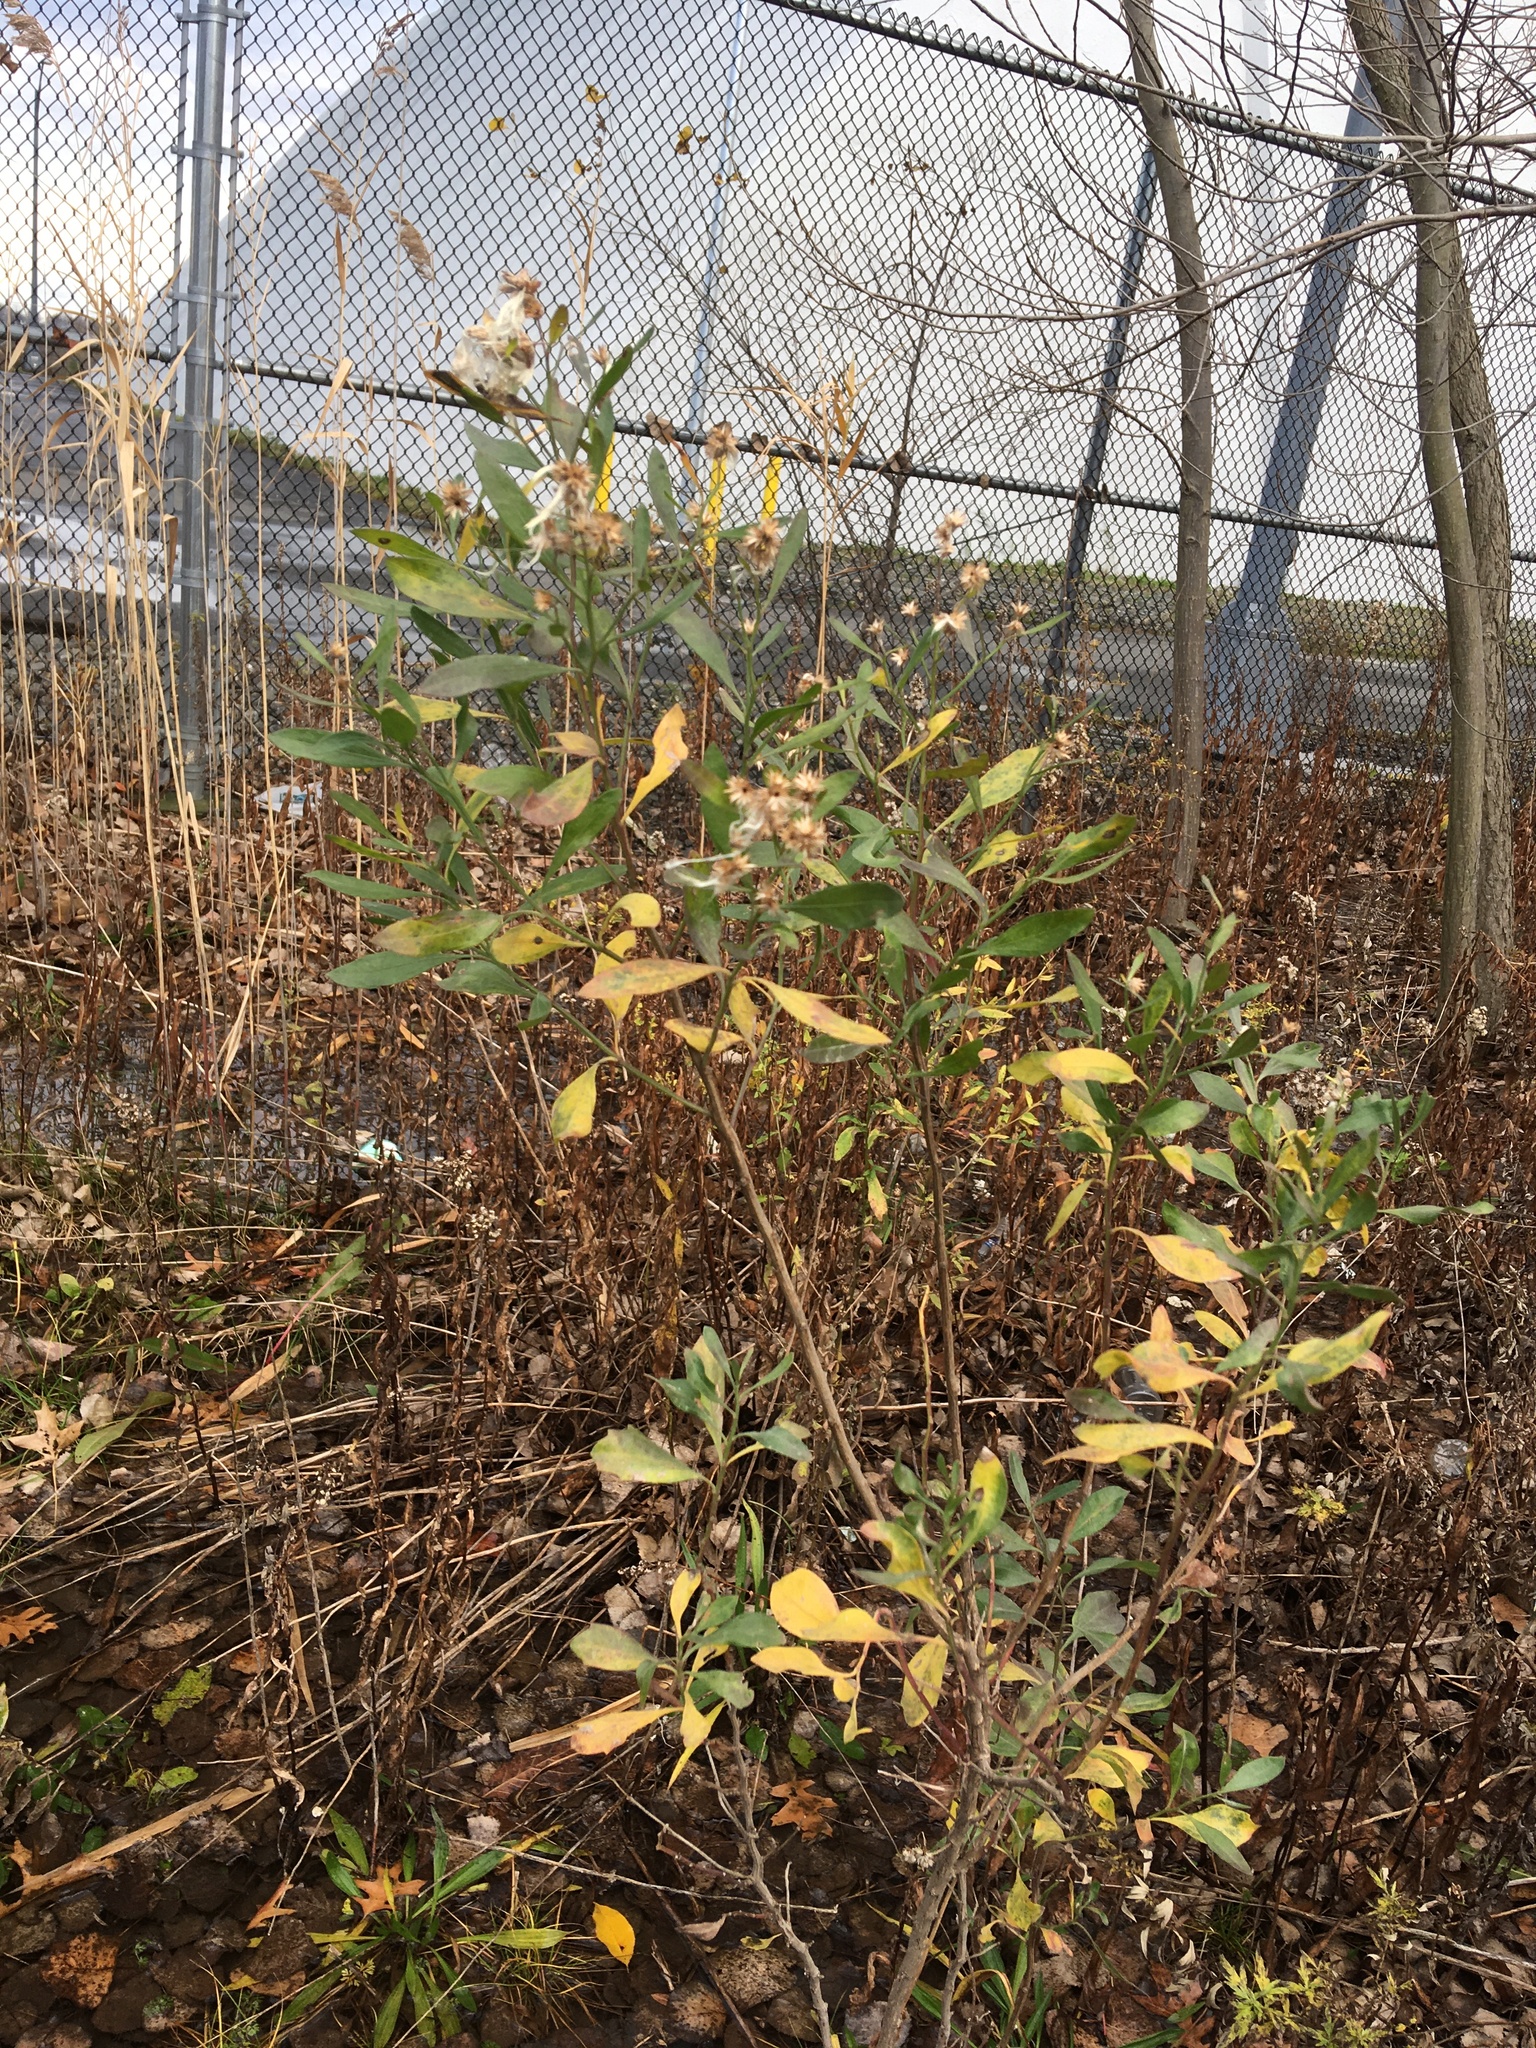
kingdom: Plantae
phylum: Tracheophyta
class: Magnoliopsida
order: Asterales
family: Asteraceae
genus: Baccharis
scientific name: Baccharis halimifolia
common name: Eastern baccharis
